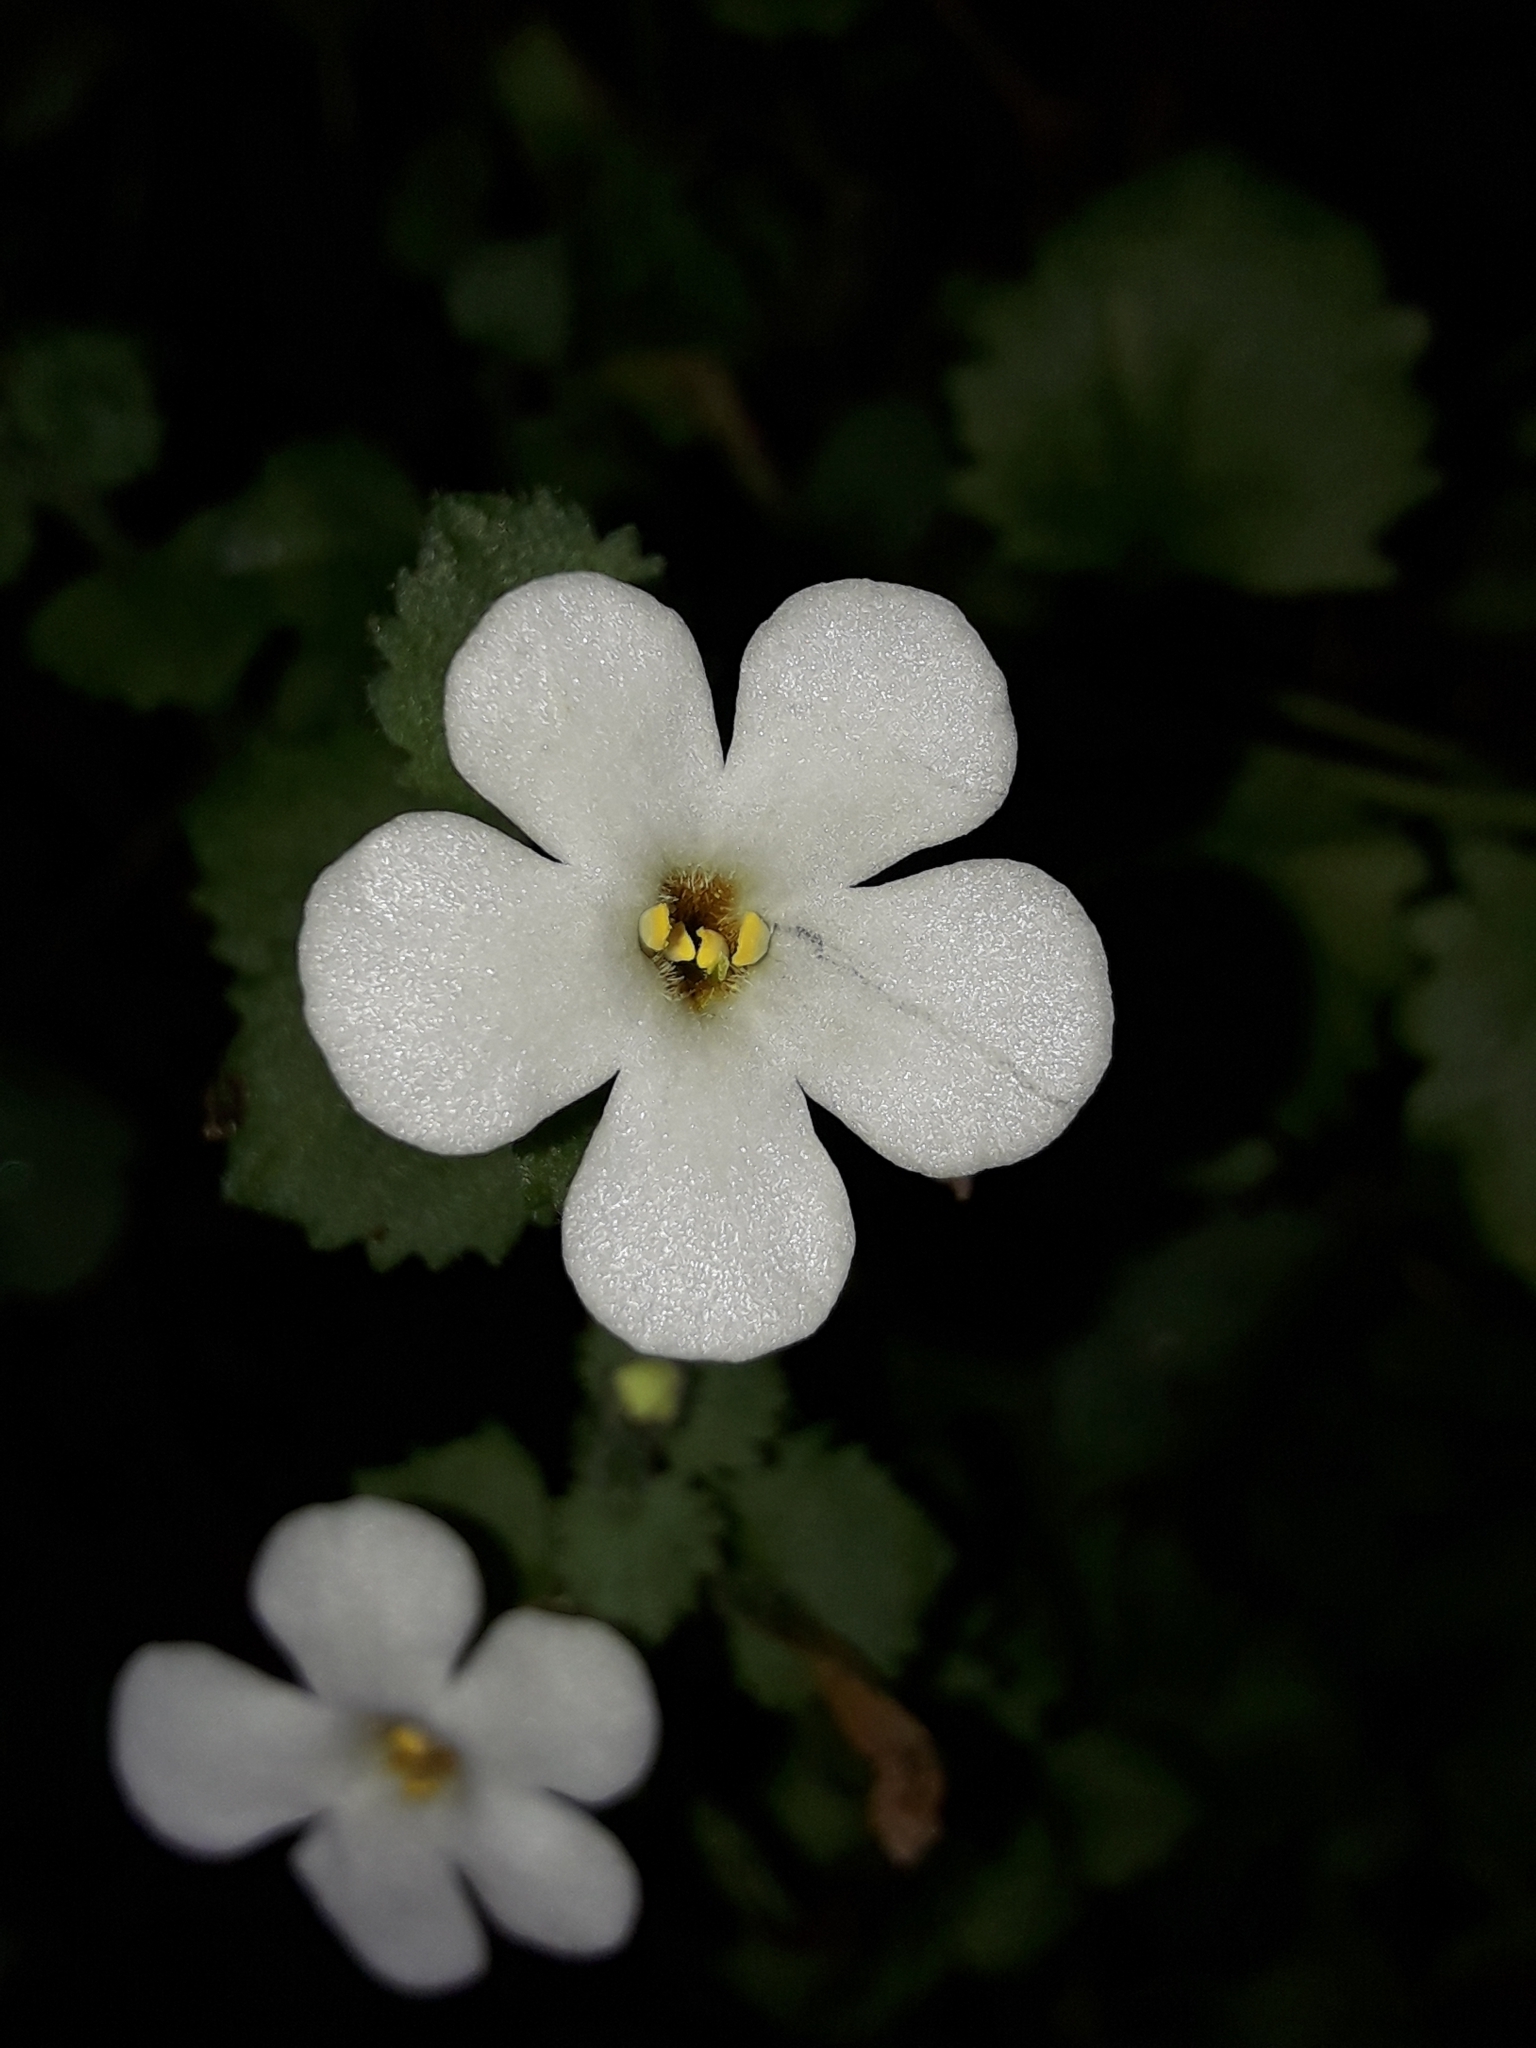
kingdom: Plantae
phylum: Tracheophyta
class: Magnoliopsida
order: Lamiales
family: Scrophulariaceae
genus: Chaenostoma
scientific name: Chaenostoma cordatum
